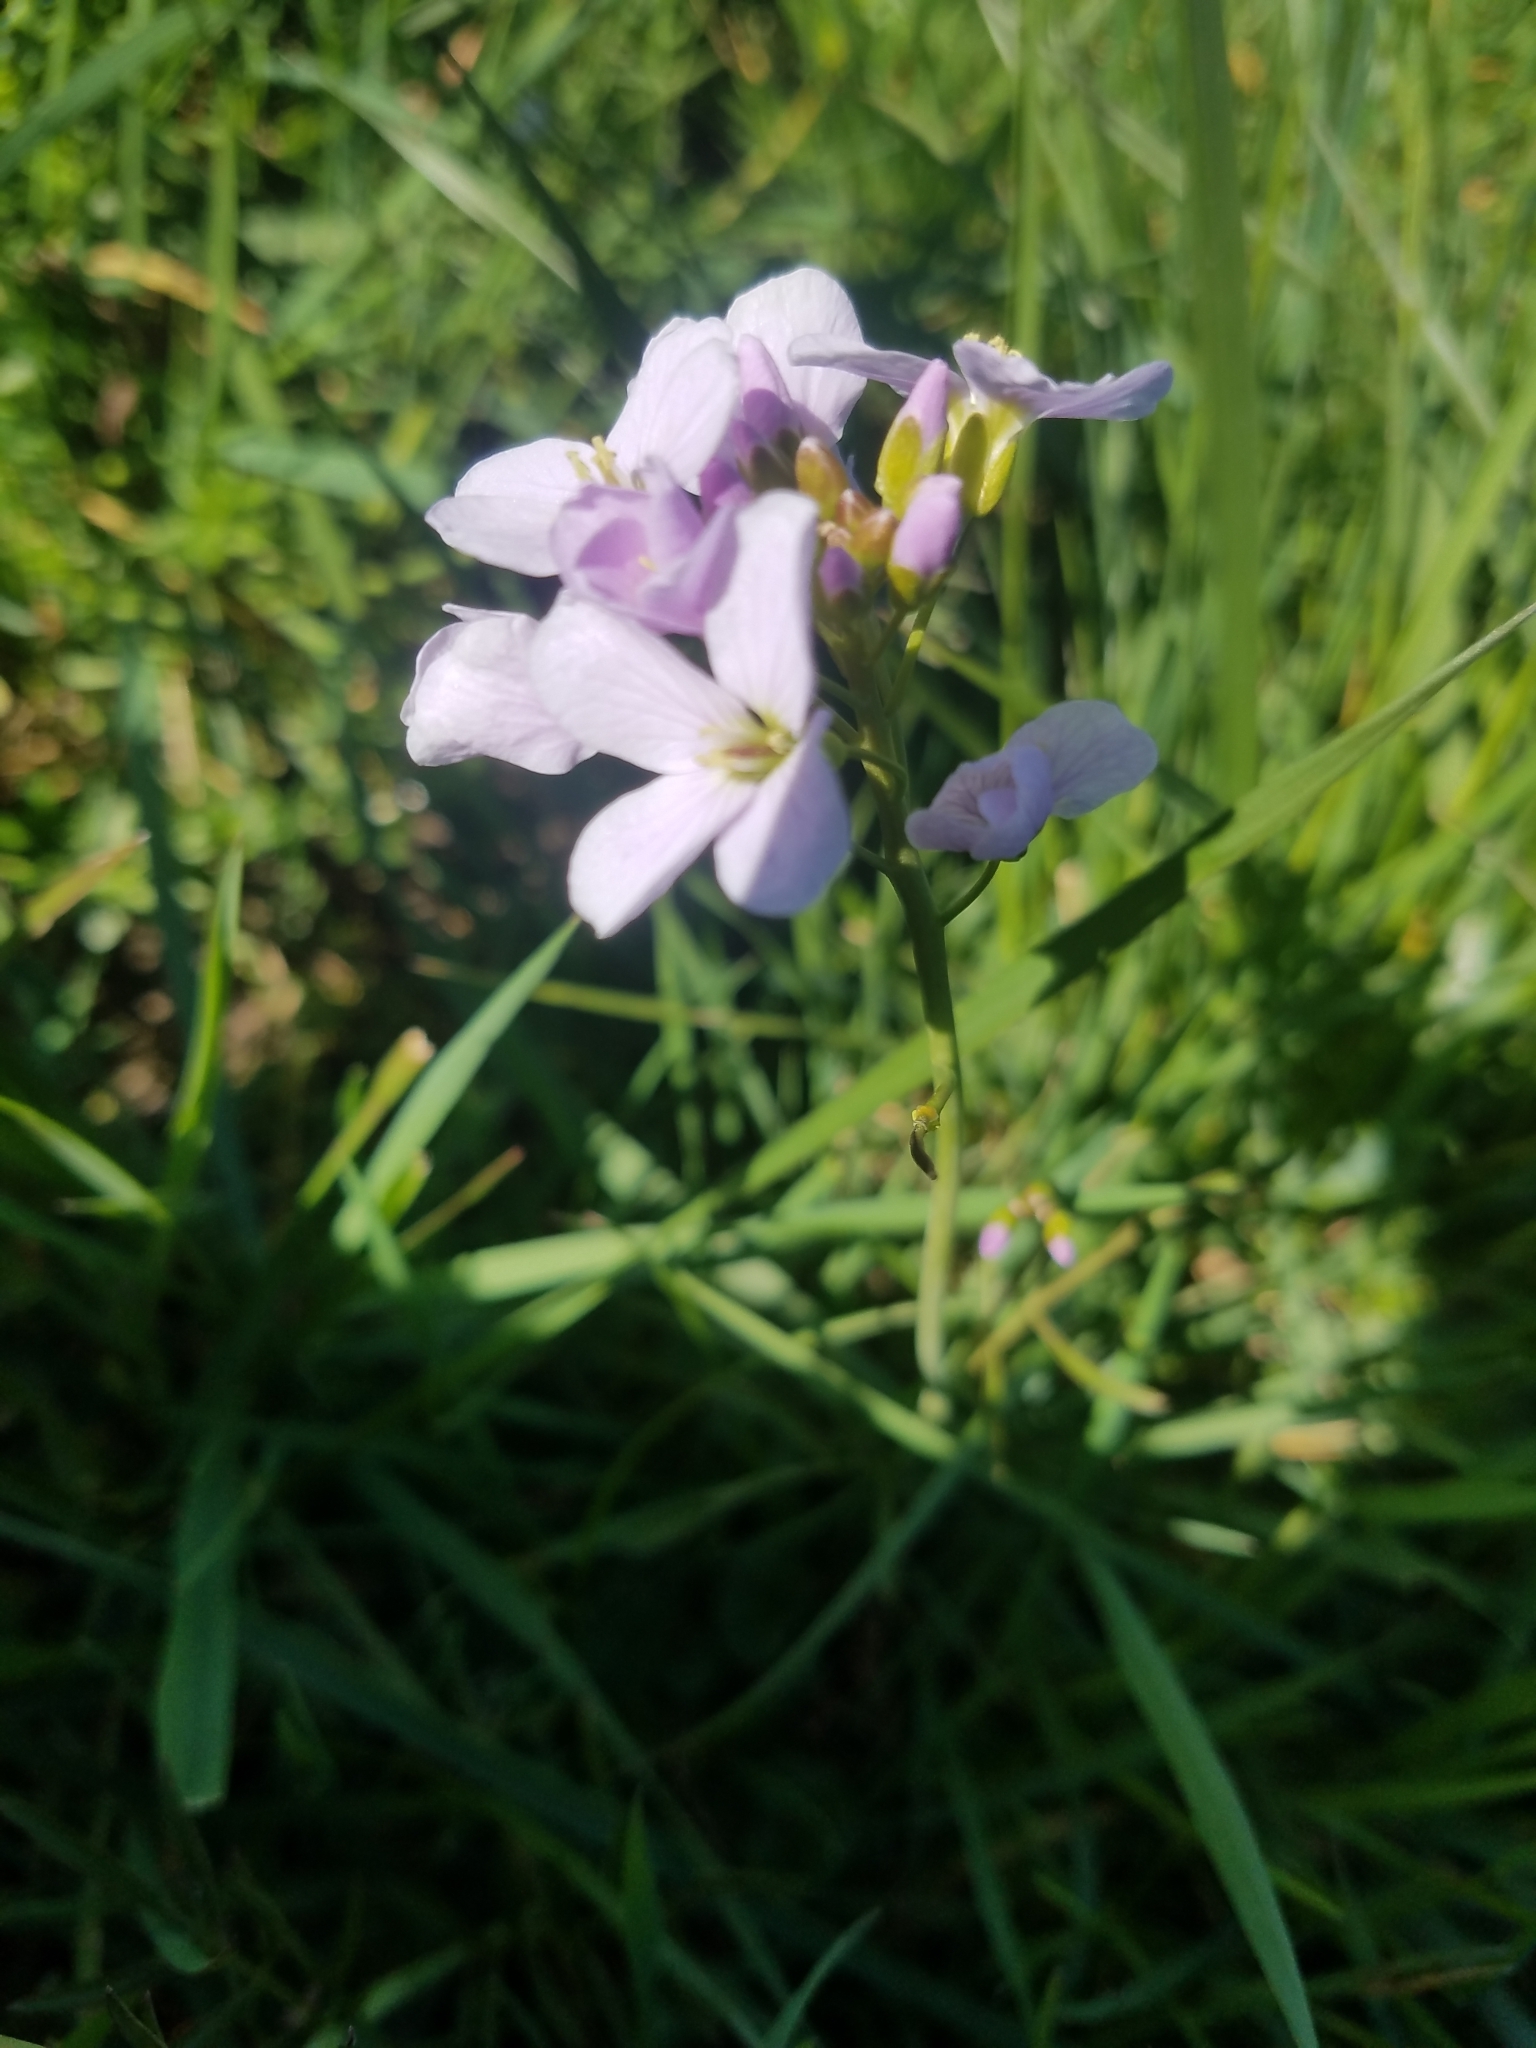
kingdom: Plantae
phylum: Tracheophyta
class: Magnoliopsida
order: Brassicales
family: Brassicaceae
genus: Cardamine
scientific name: Cardamine pratensis
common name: Cuckoo flower
